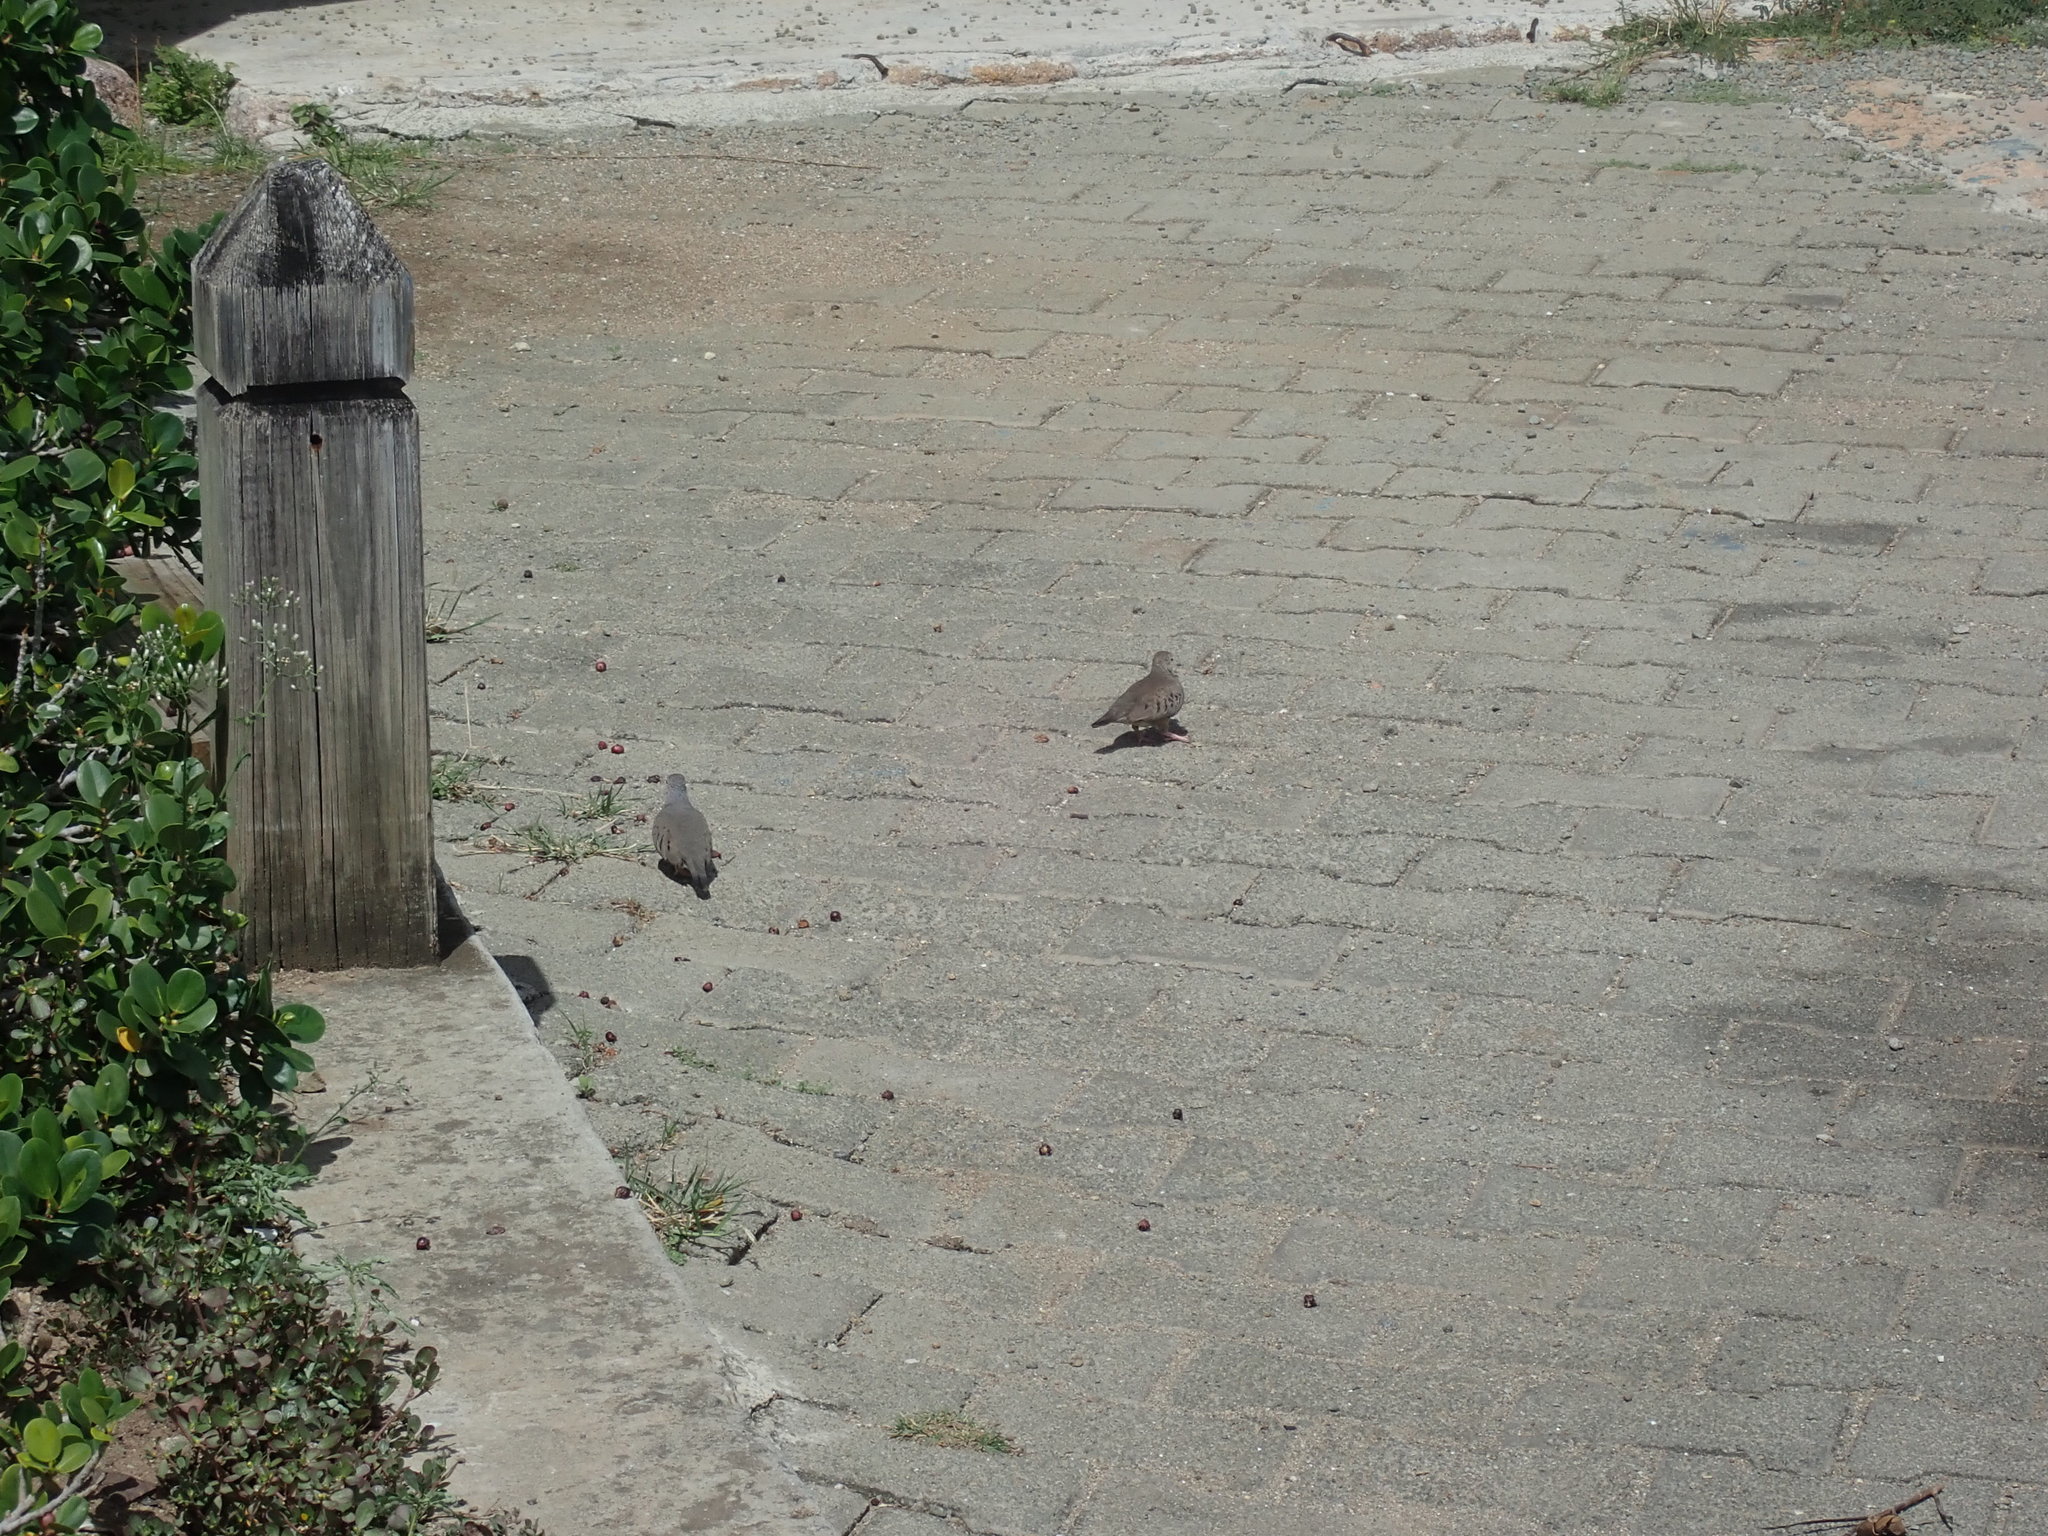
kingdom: Animalia
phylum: Chordata
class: Aves
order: Columbiformes
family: Columbidae
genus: Columbina
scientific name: Columbina passerina
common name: Common ground-dove
